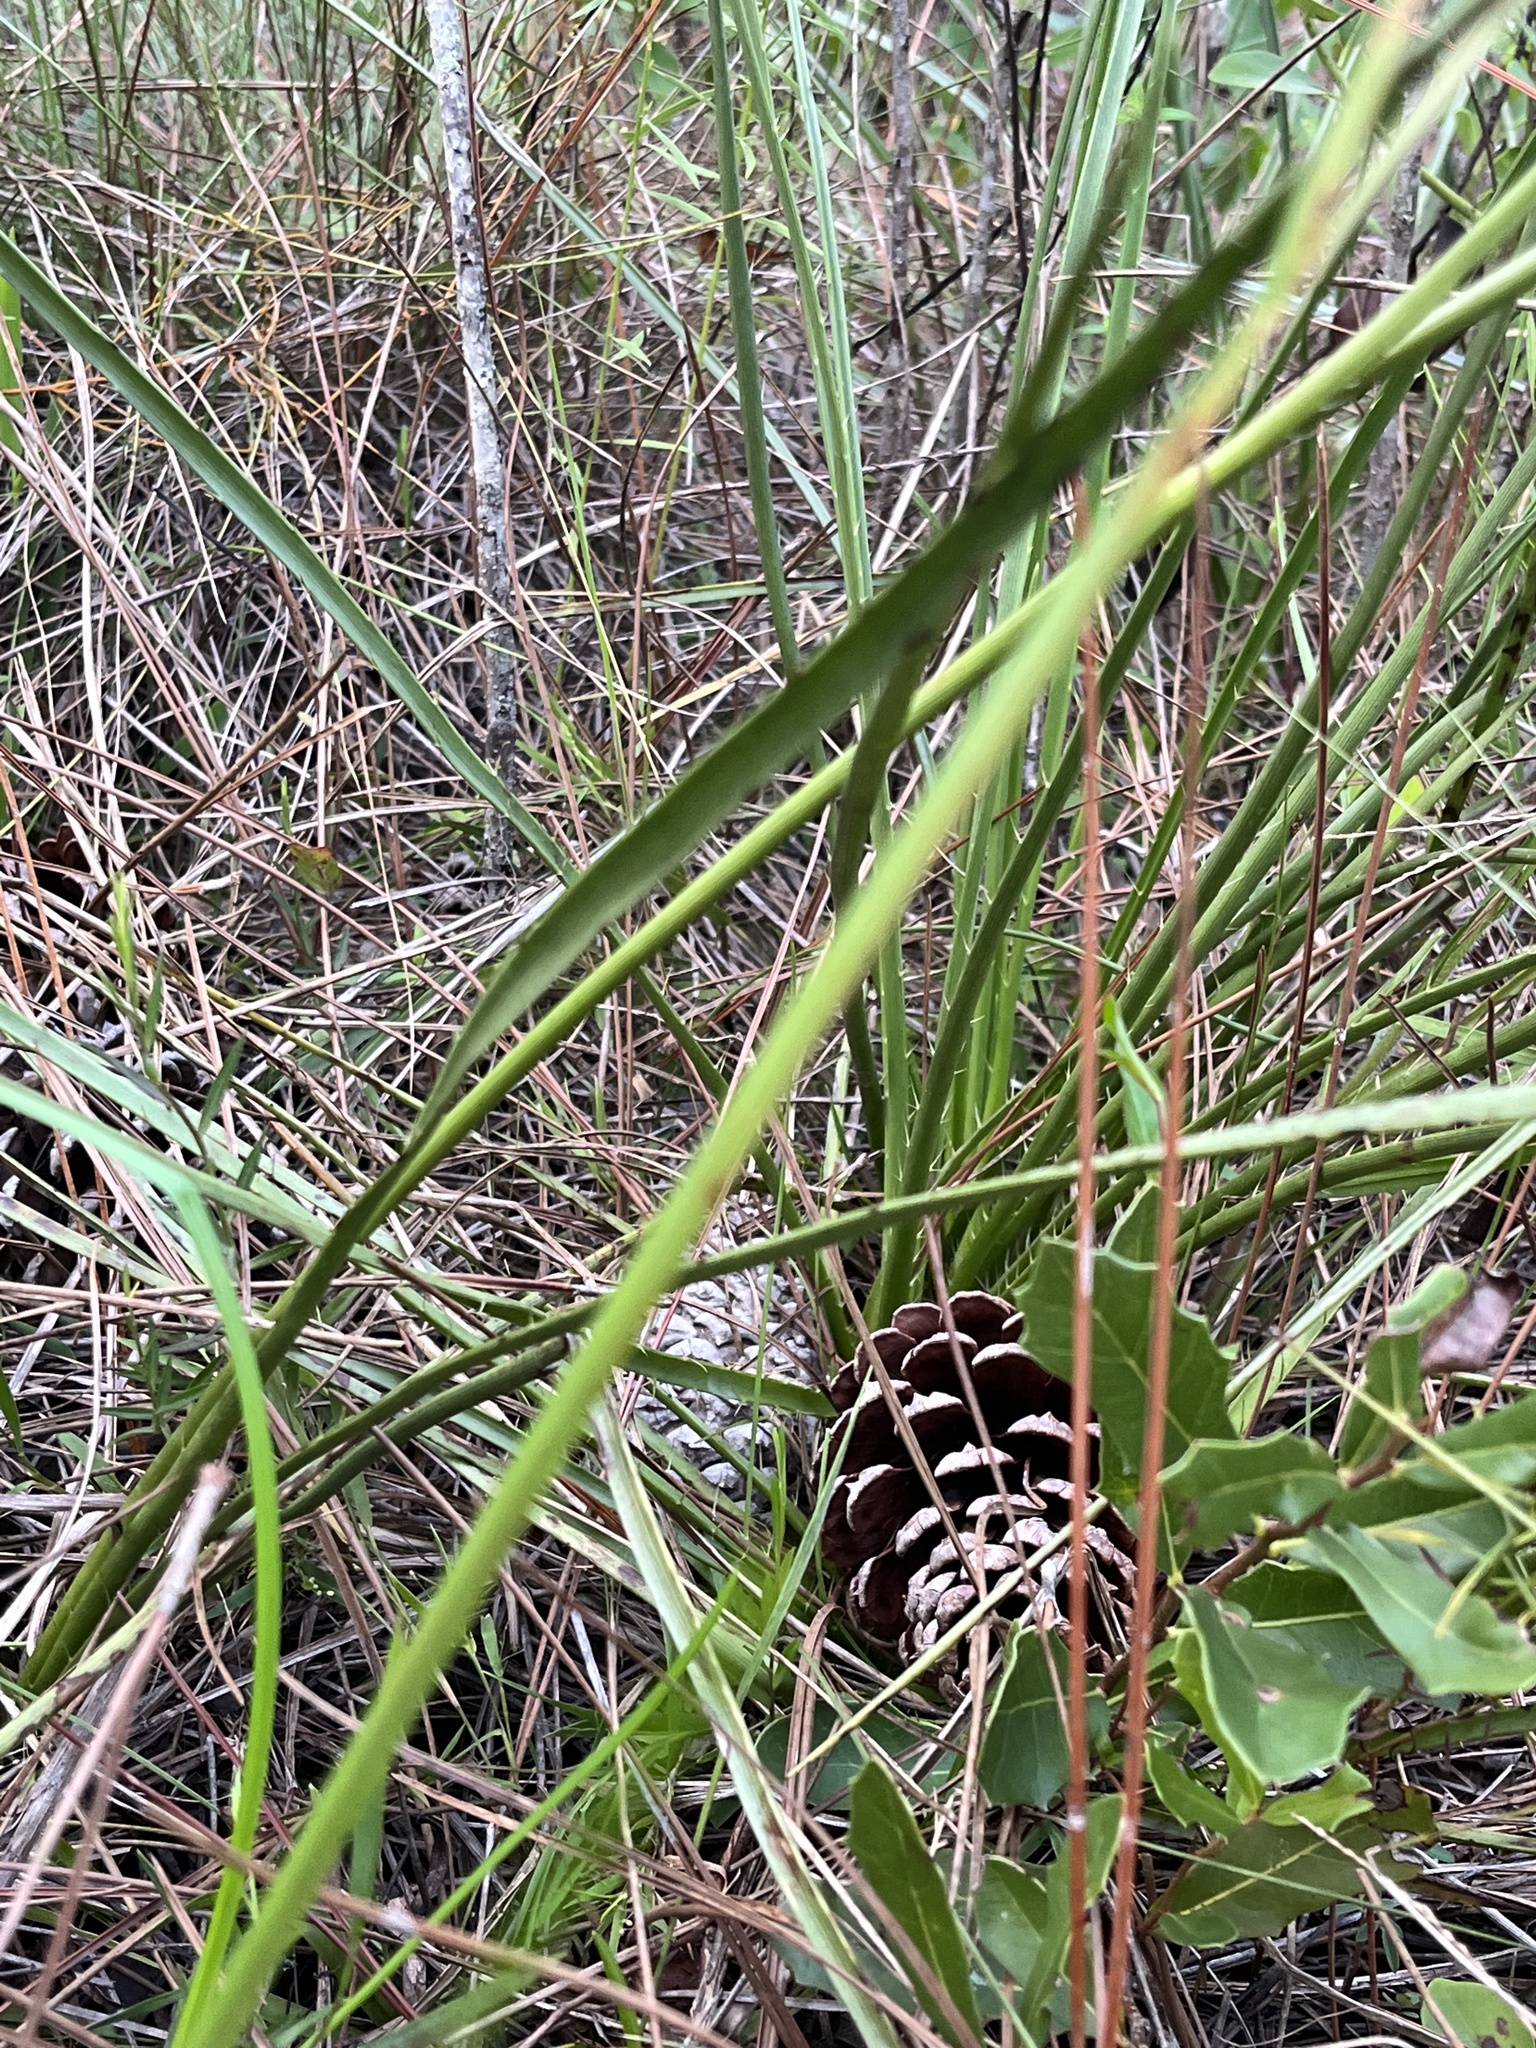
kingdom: Plantae
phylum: Tracheophyta
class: Magnoliopsida
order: Apiales
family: Apiaceae
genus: Eryngium
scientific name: Eryngium yuccifolium
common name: Button eryngo
